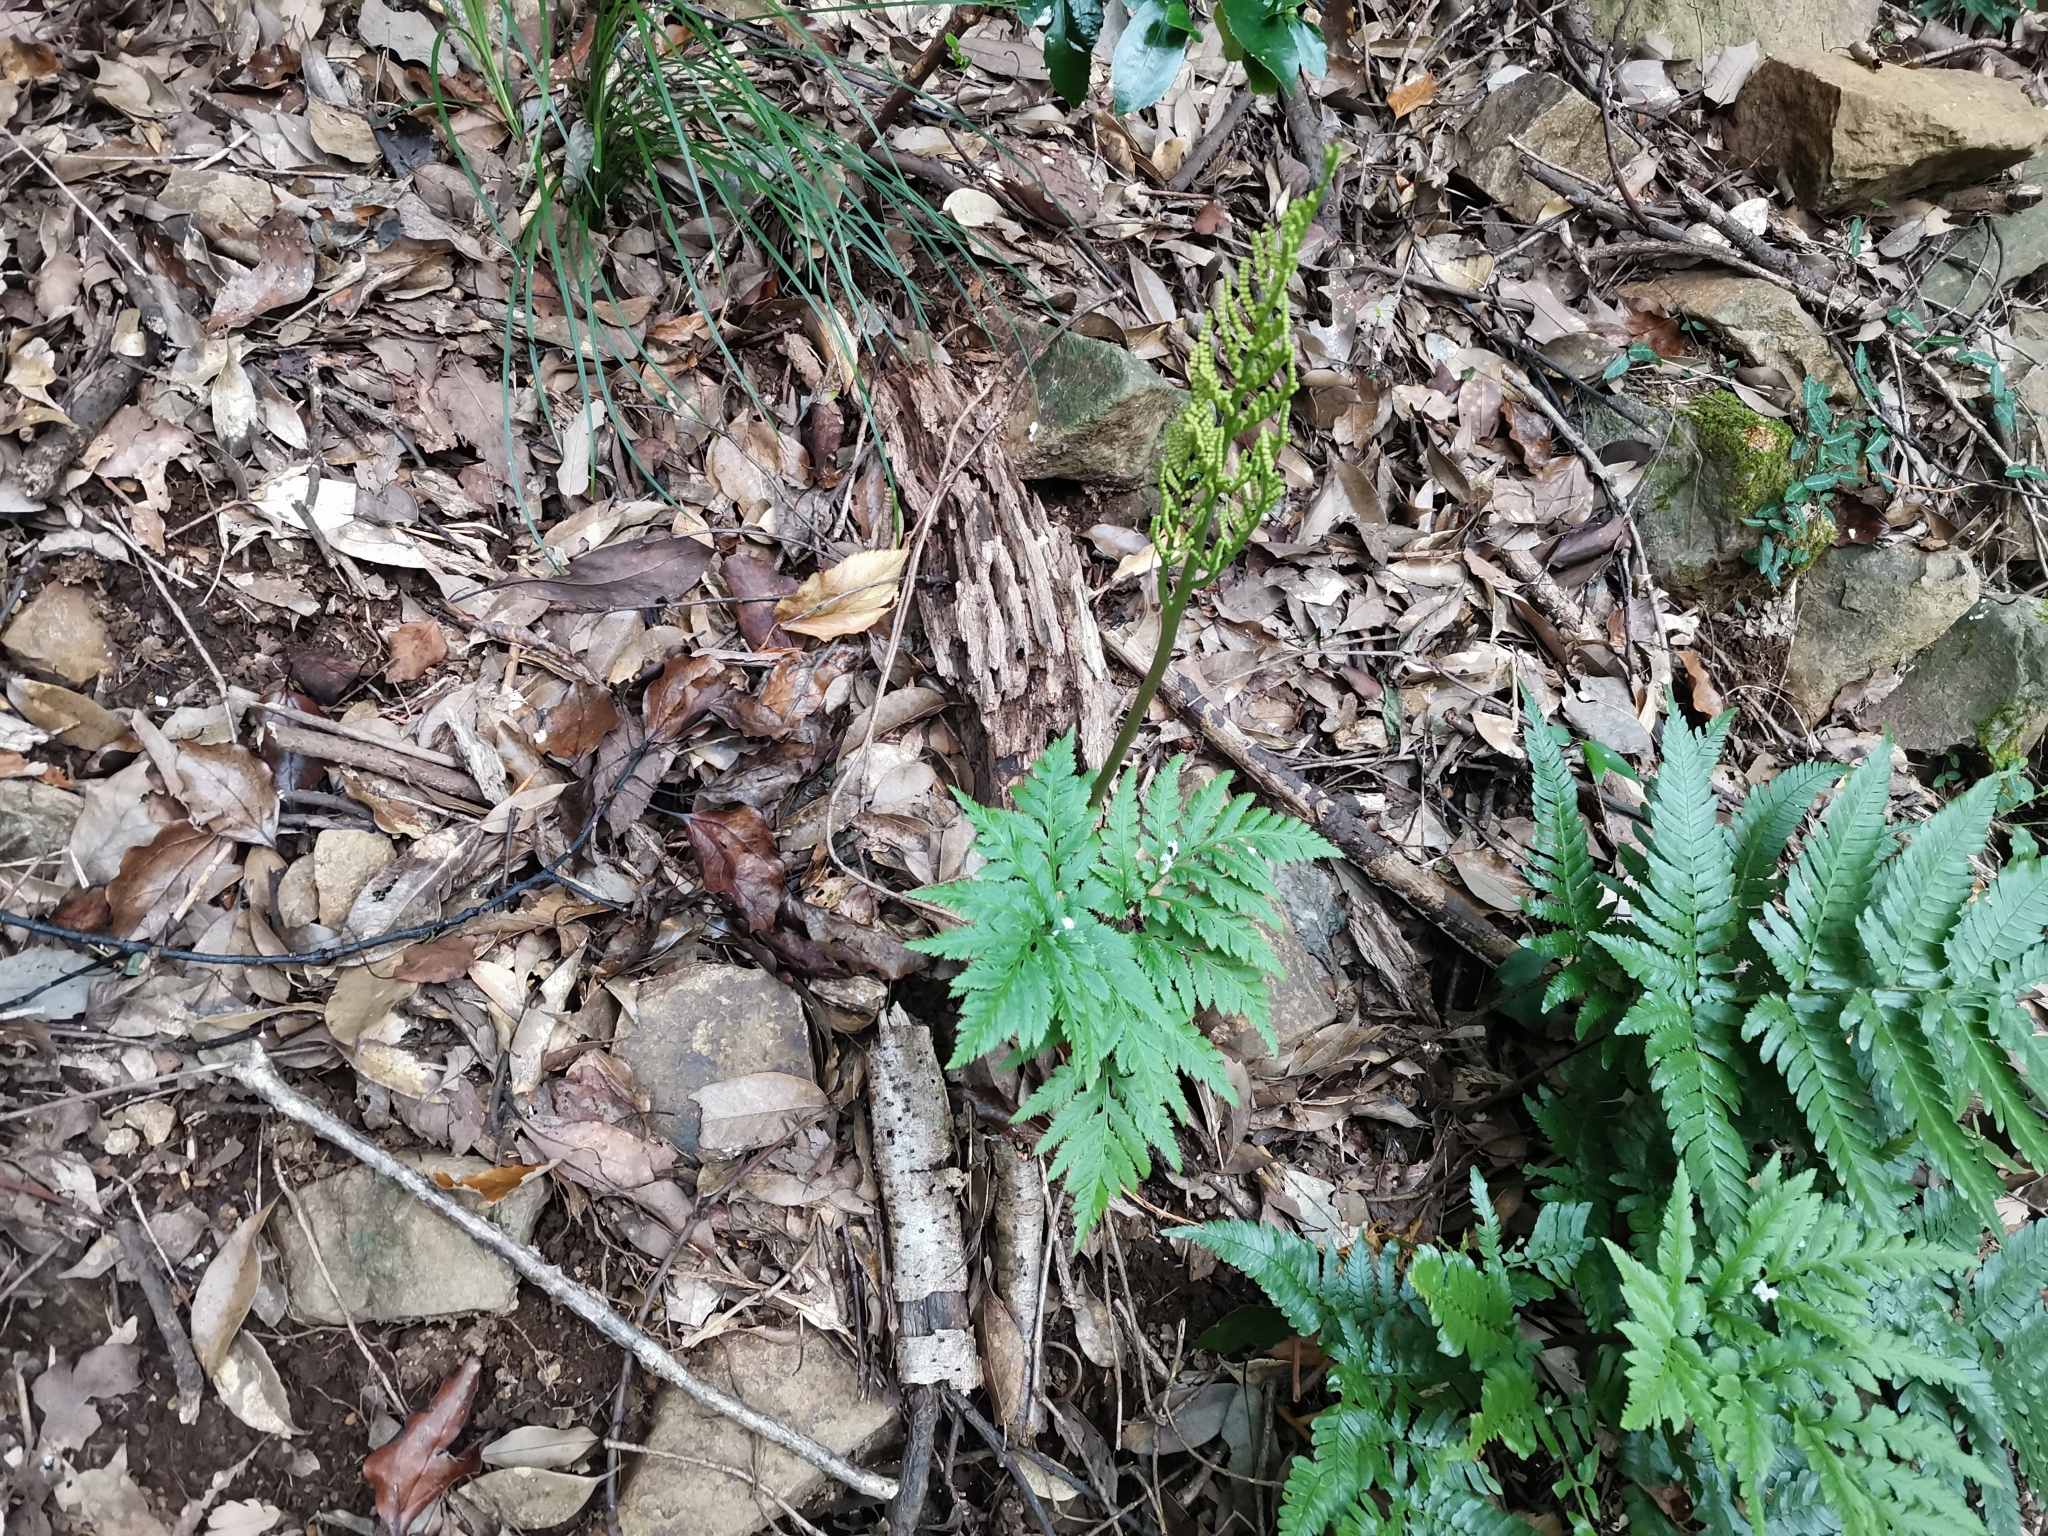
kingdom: Plantae
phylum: Tracheophyta
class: Polypodiopsida
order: Ophioglossales
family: Ophioglossaceae
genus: Sceptridium
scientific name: Sceptridium japonicum
